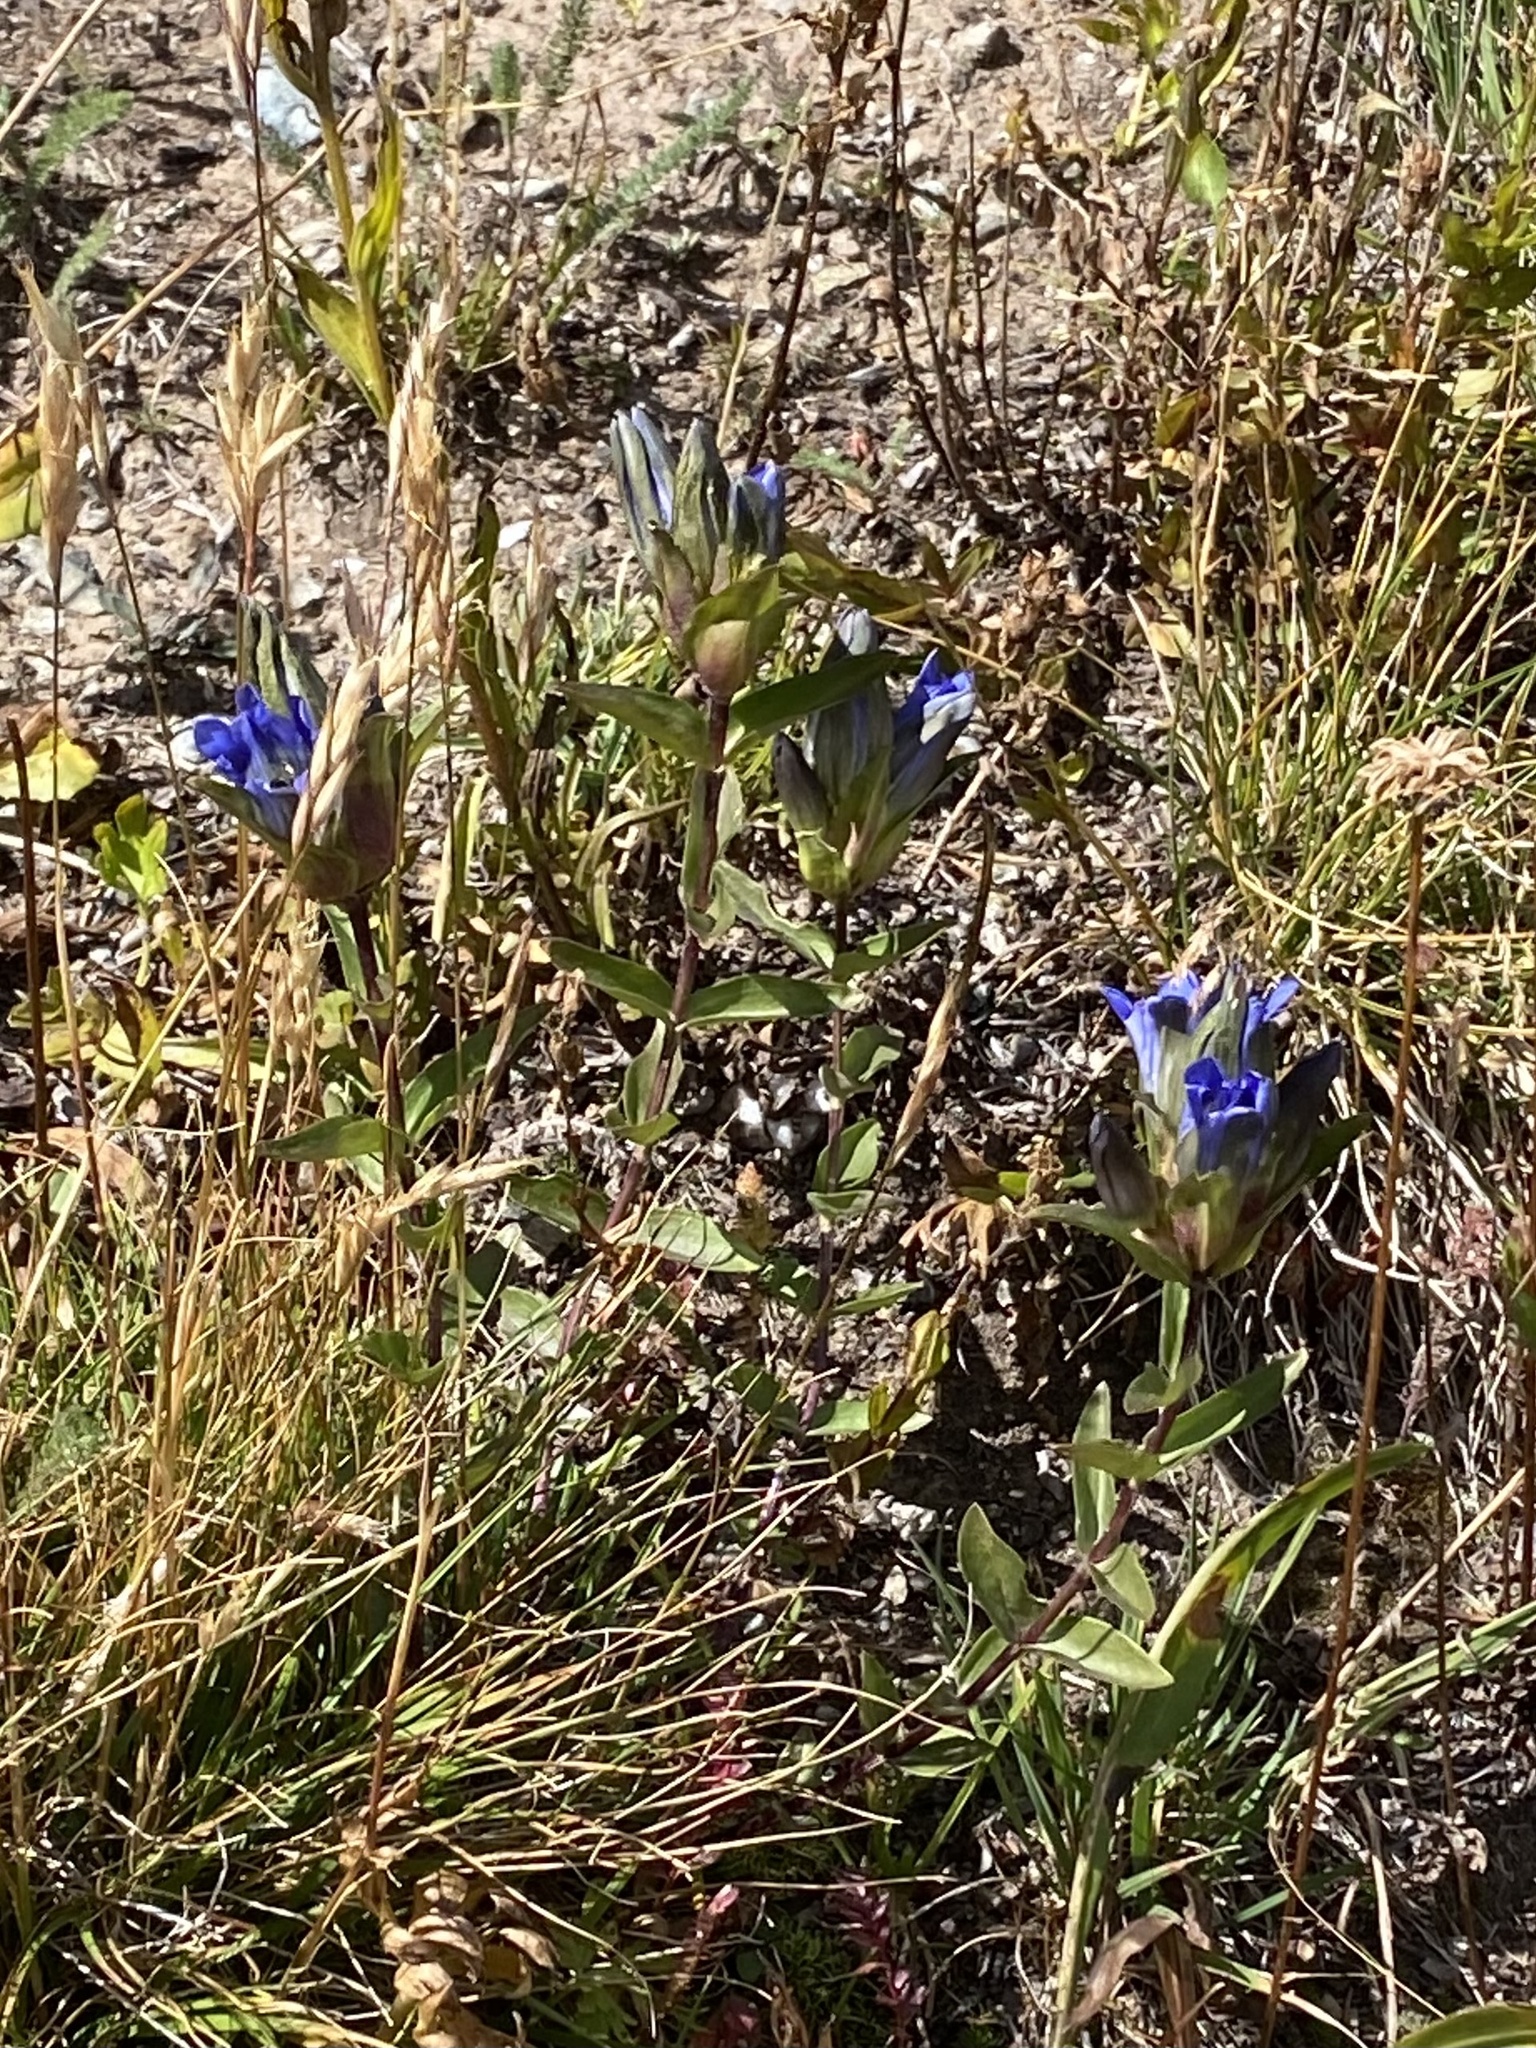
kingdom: Plantae
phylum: Tracheophyta
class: Magnoliopsida
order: Gentianales
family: Gentianaceae
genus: Gentiana
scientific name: Gentiana parryi
